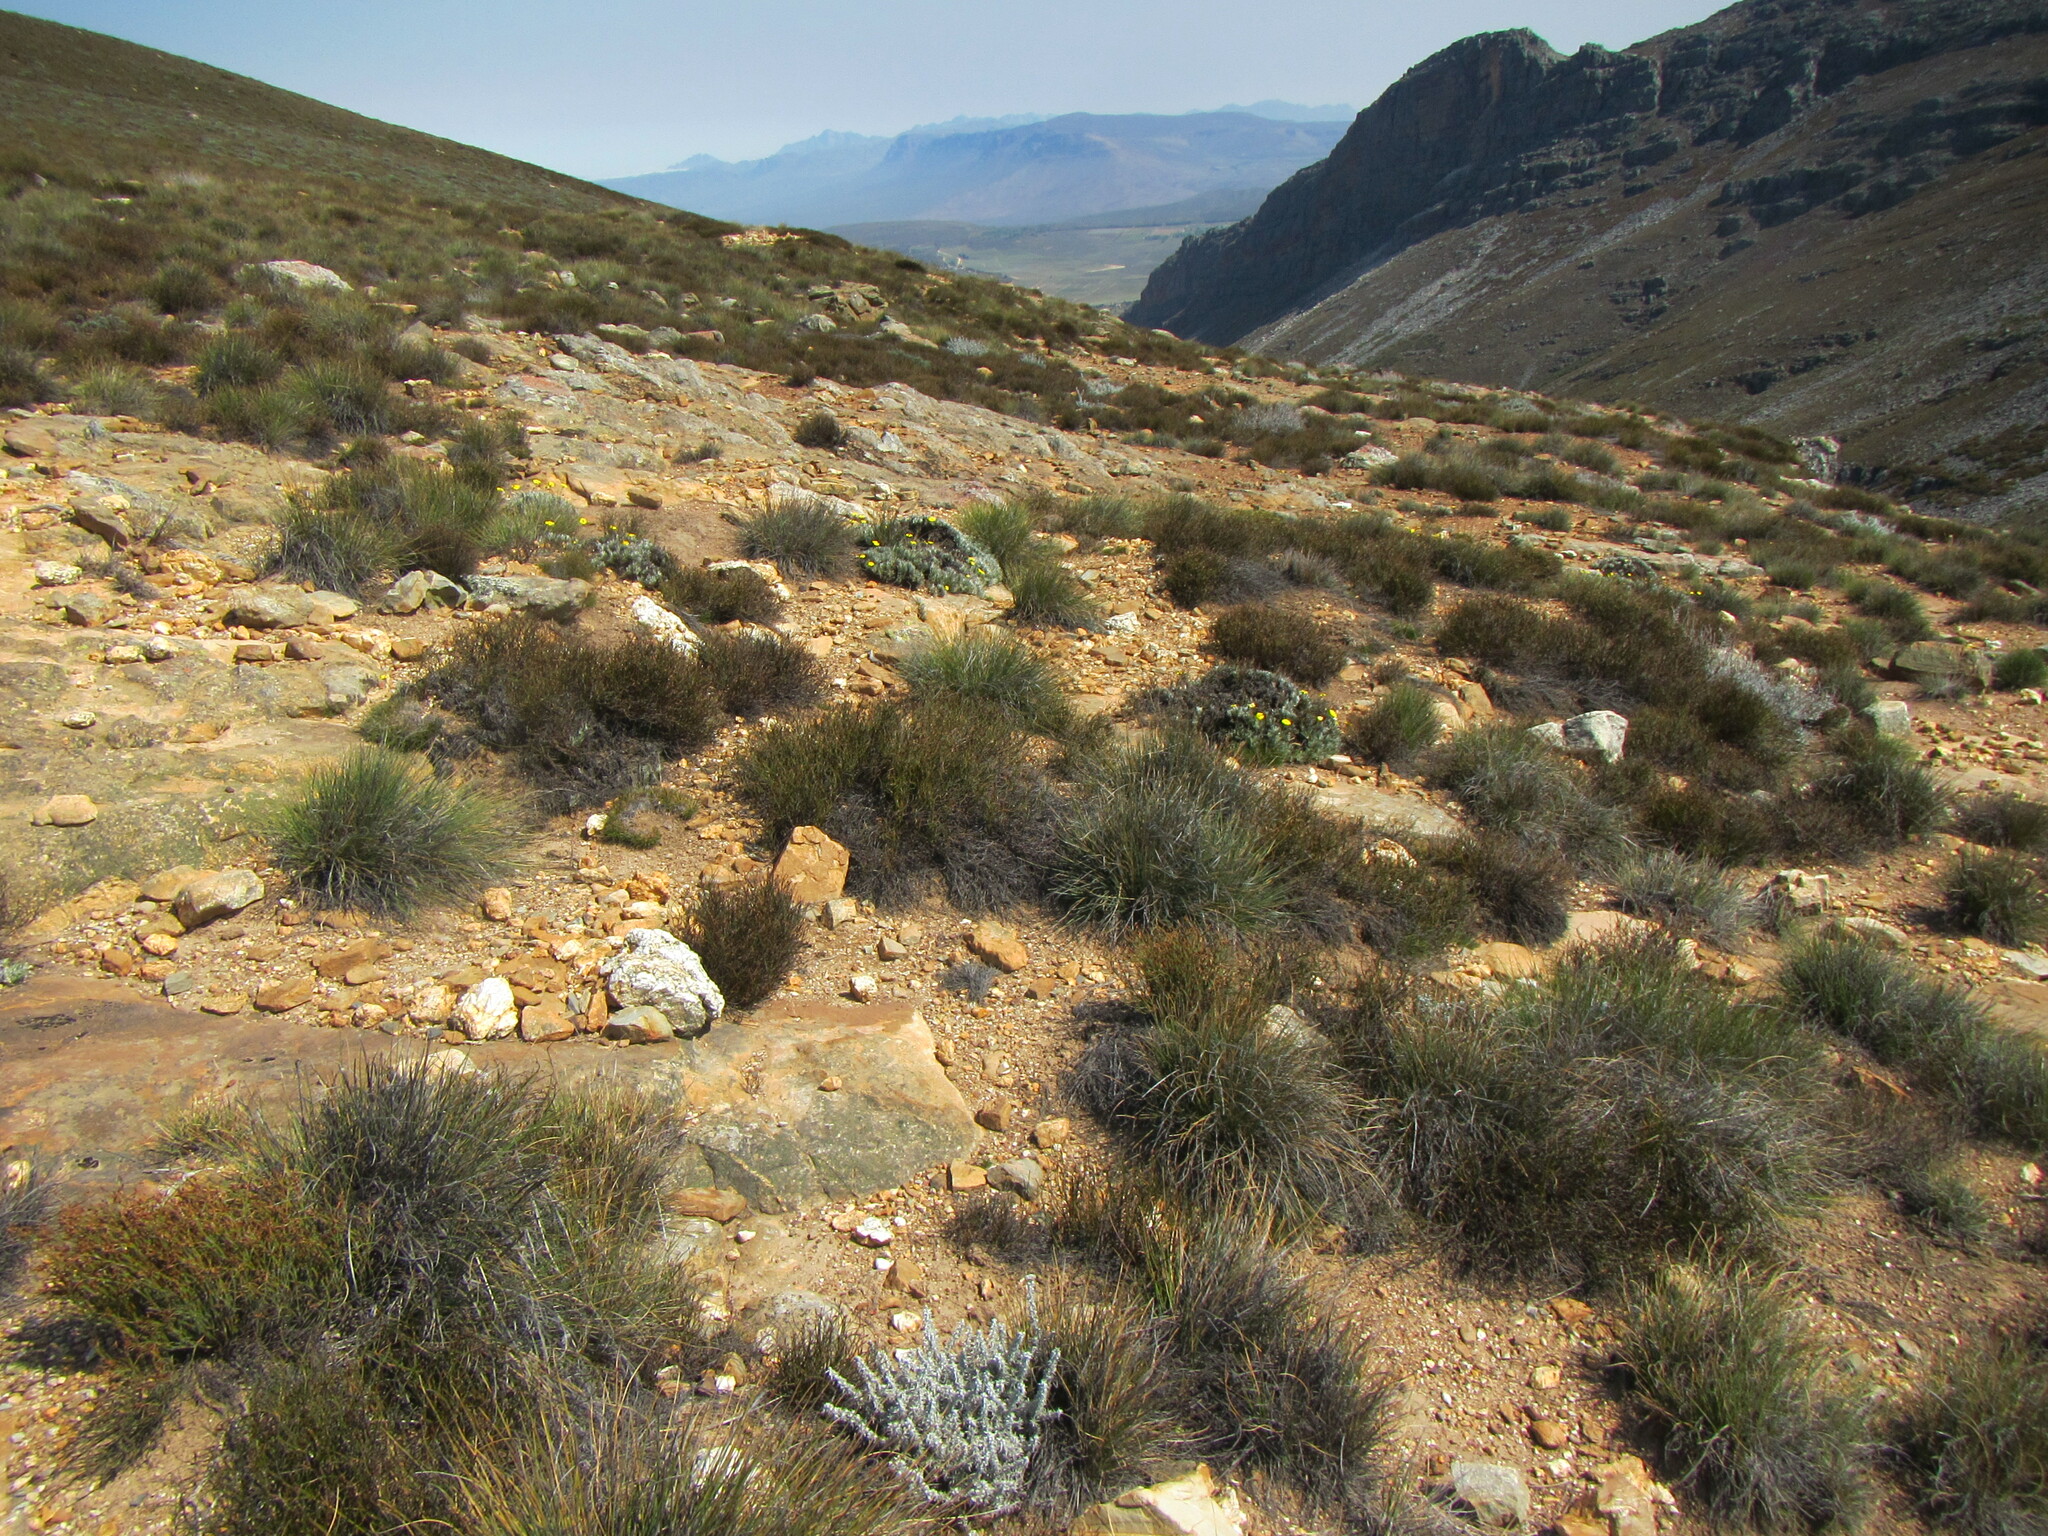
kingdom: Plantae
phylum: Tracheophyta
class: Magnoliopsida
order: Asterales
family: Asteraceae
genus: Euryops
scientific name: Euryops othonnoides
